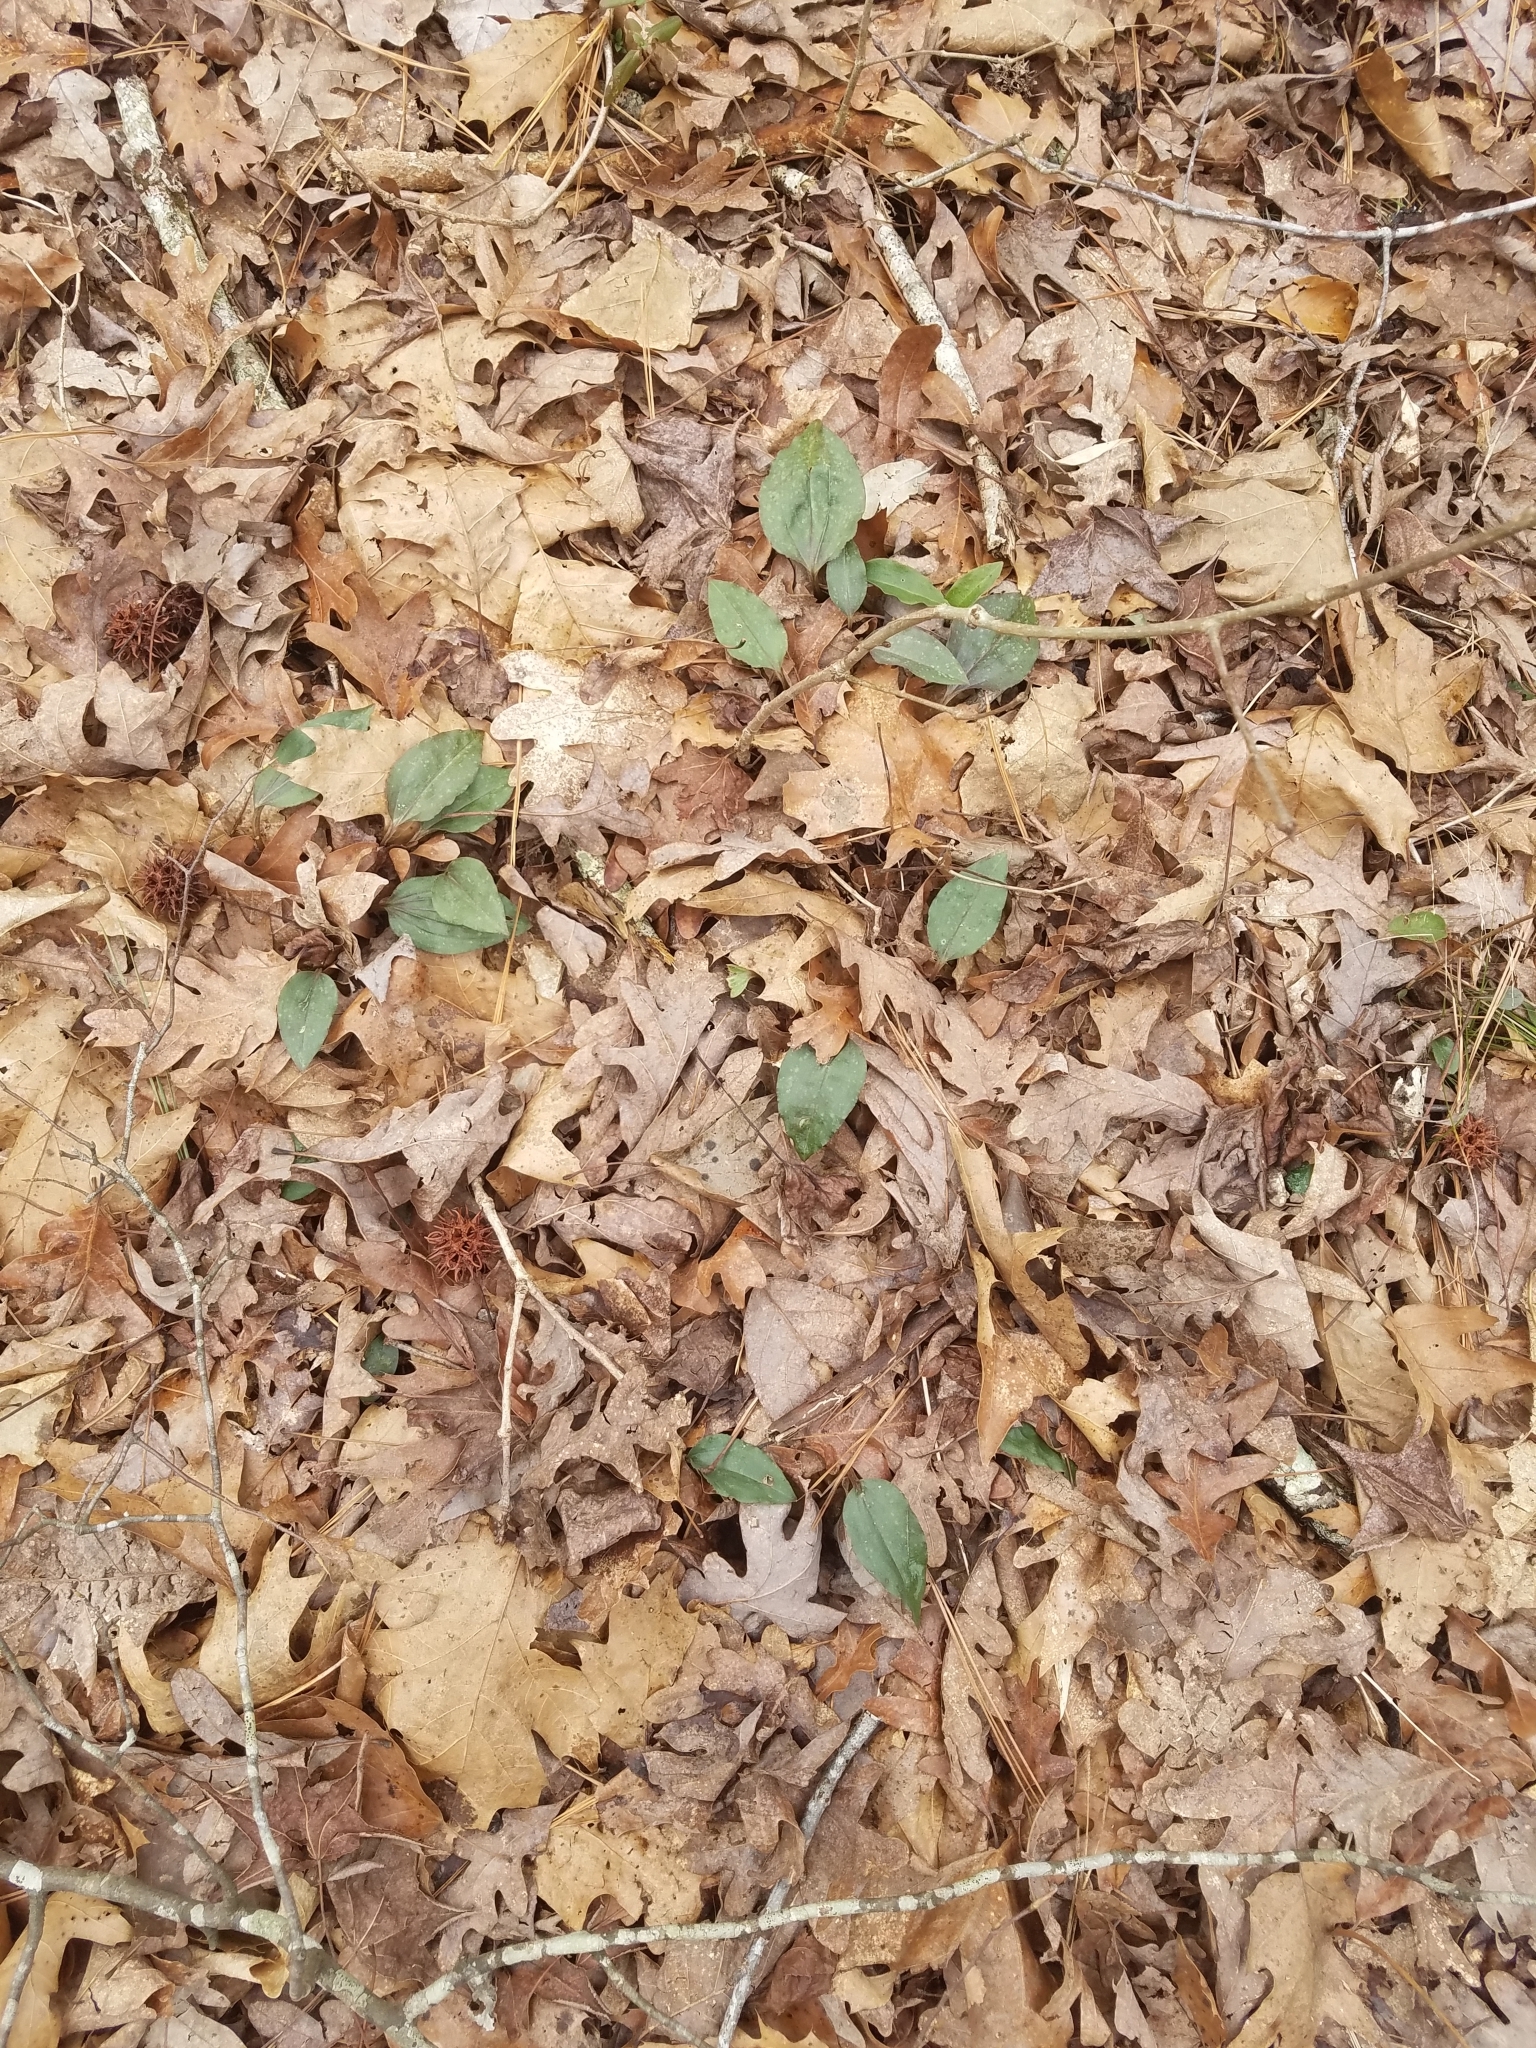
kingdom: Plantae
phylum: Tracheophyta
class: Liliopsida
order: Asparagales
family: Orchidaceae
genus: Tipularia
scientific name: Tipularia discolor
